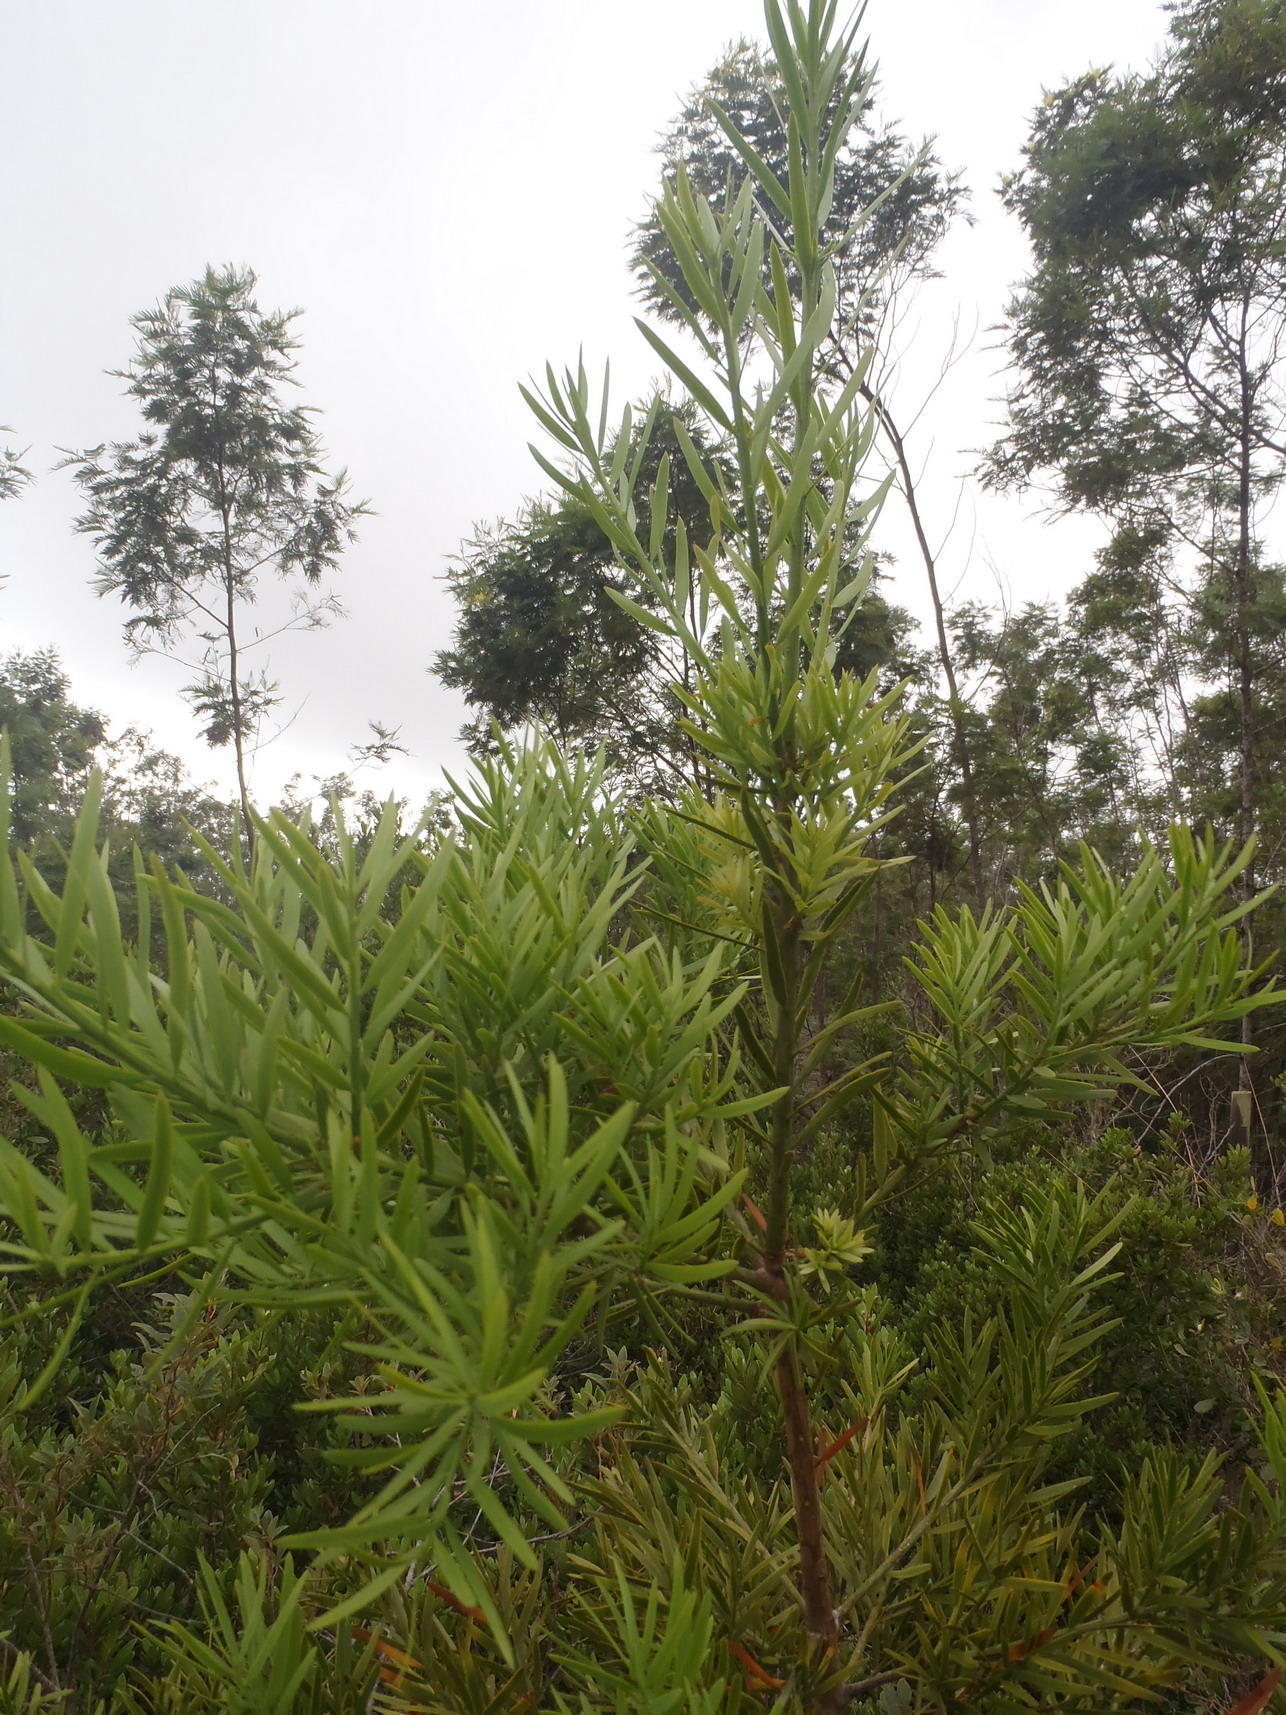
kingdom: Plantae
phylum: Tracheophyta
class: Pinopsida
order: Pinales
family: Podocarpaceae
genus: Afrocarpus
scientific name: Afrocarpus falcatus
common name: Bastard yellowwood
